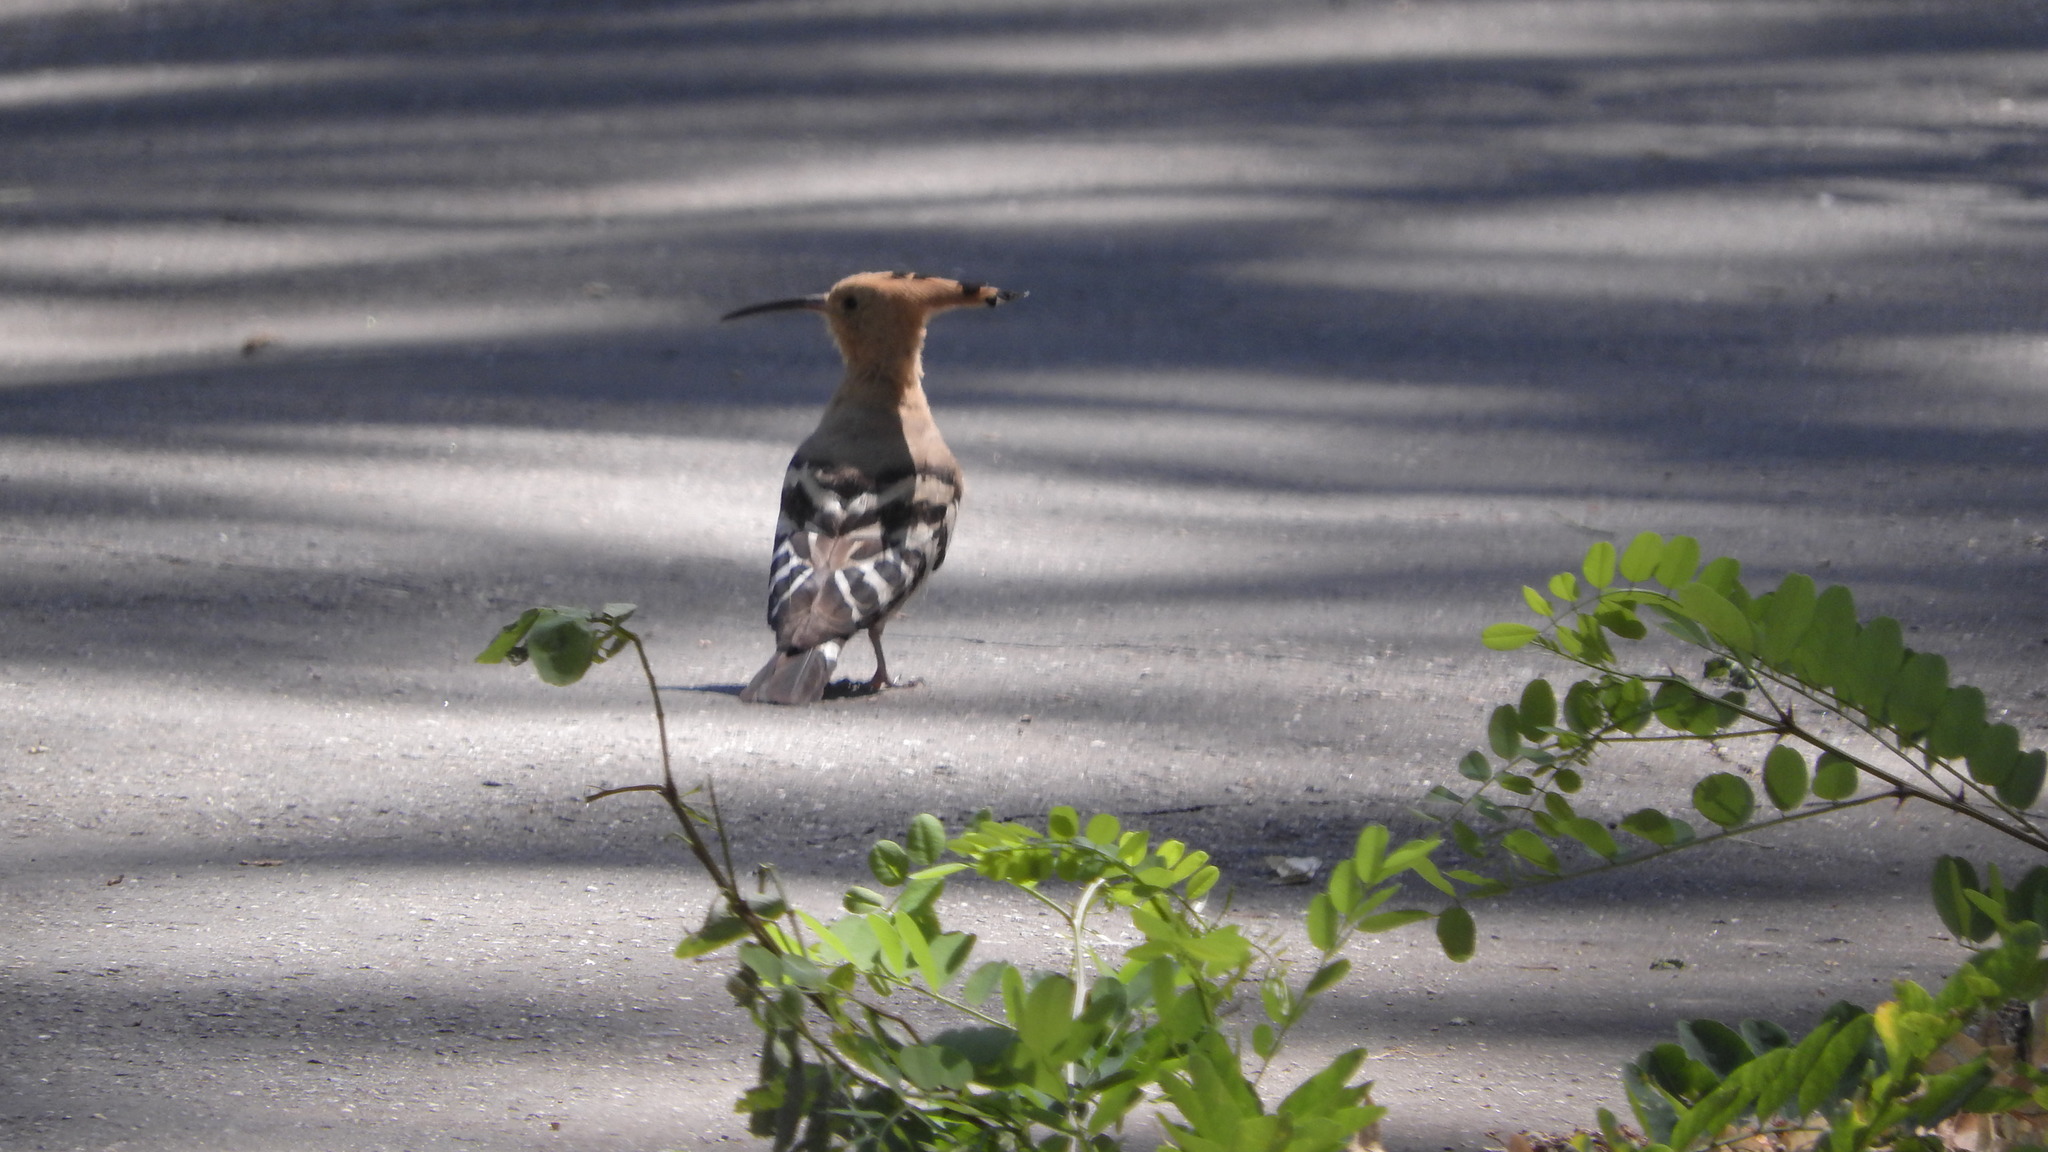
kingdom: Animalia
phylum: Chordata
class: Aves
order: Bucerotiformes
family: Upupidae
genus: Upupa
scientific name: Upupa epops
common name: Eurasian hoopoe
